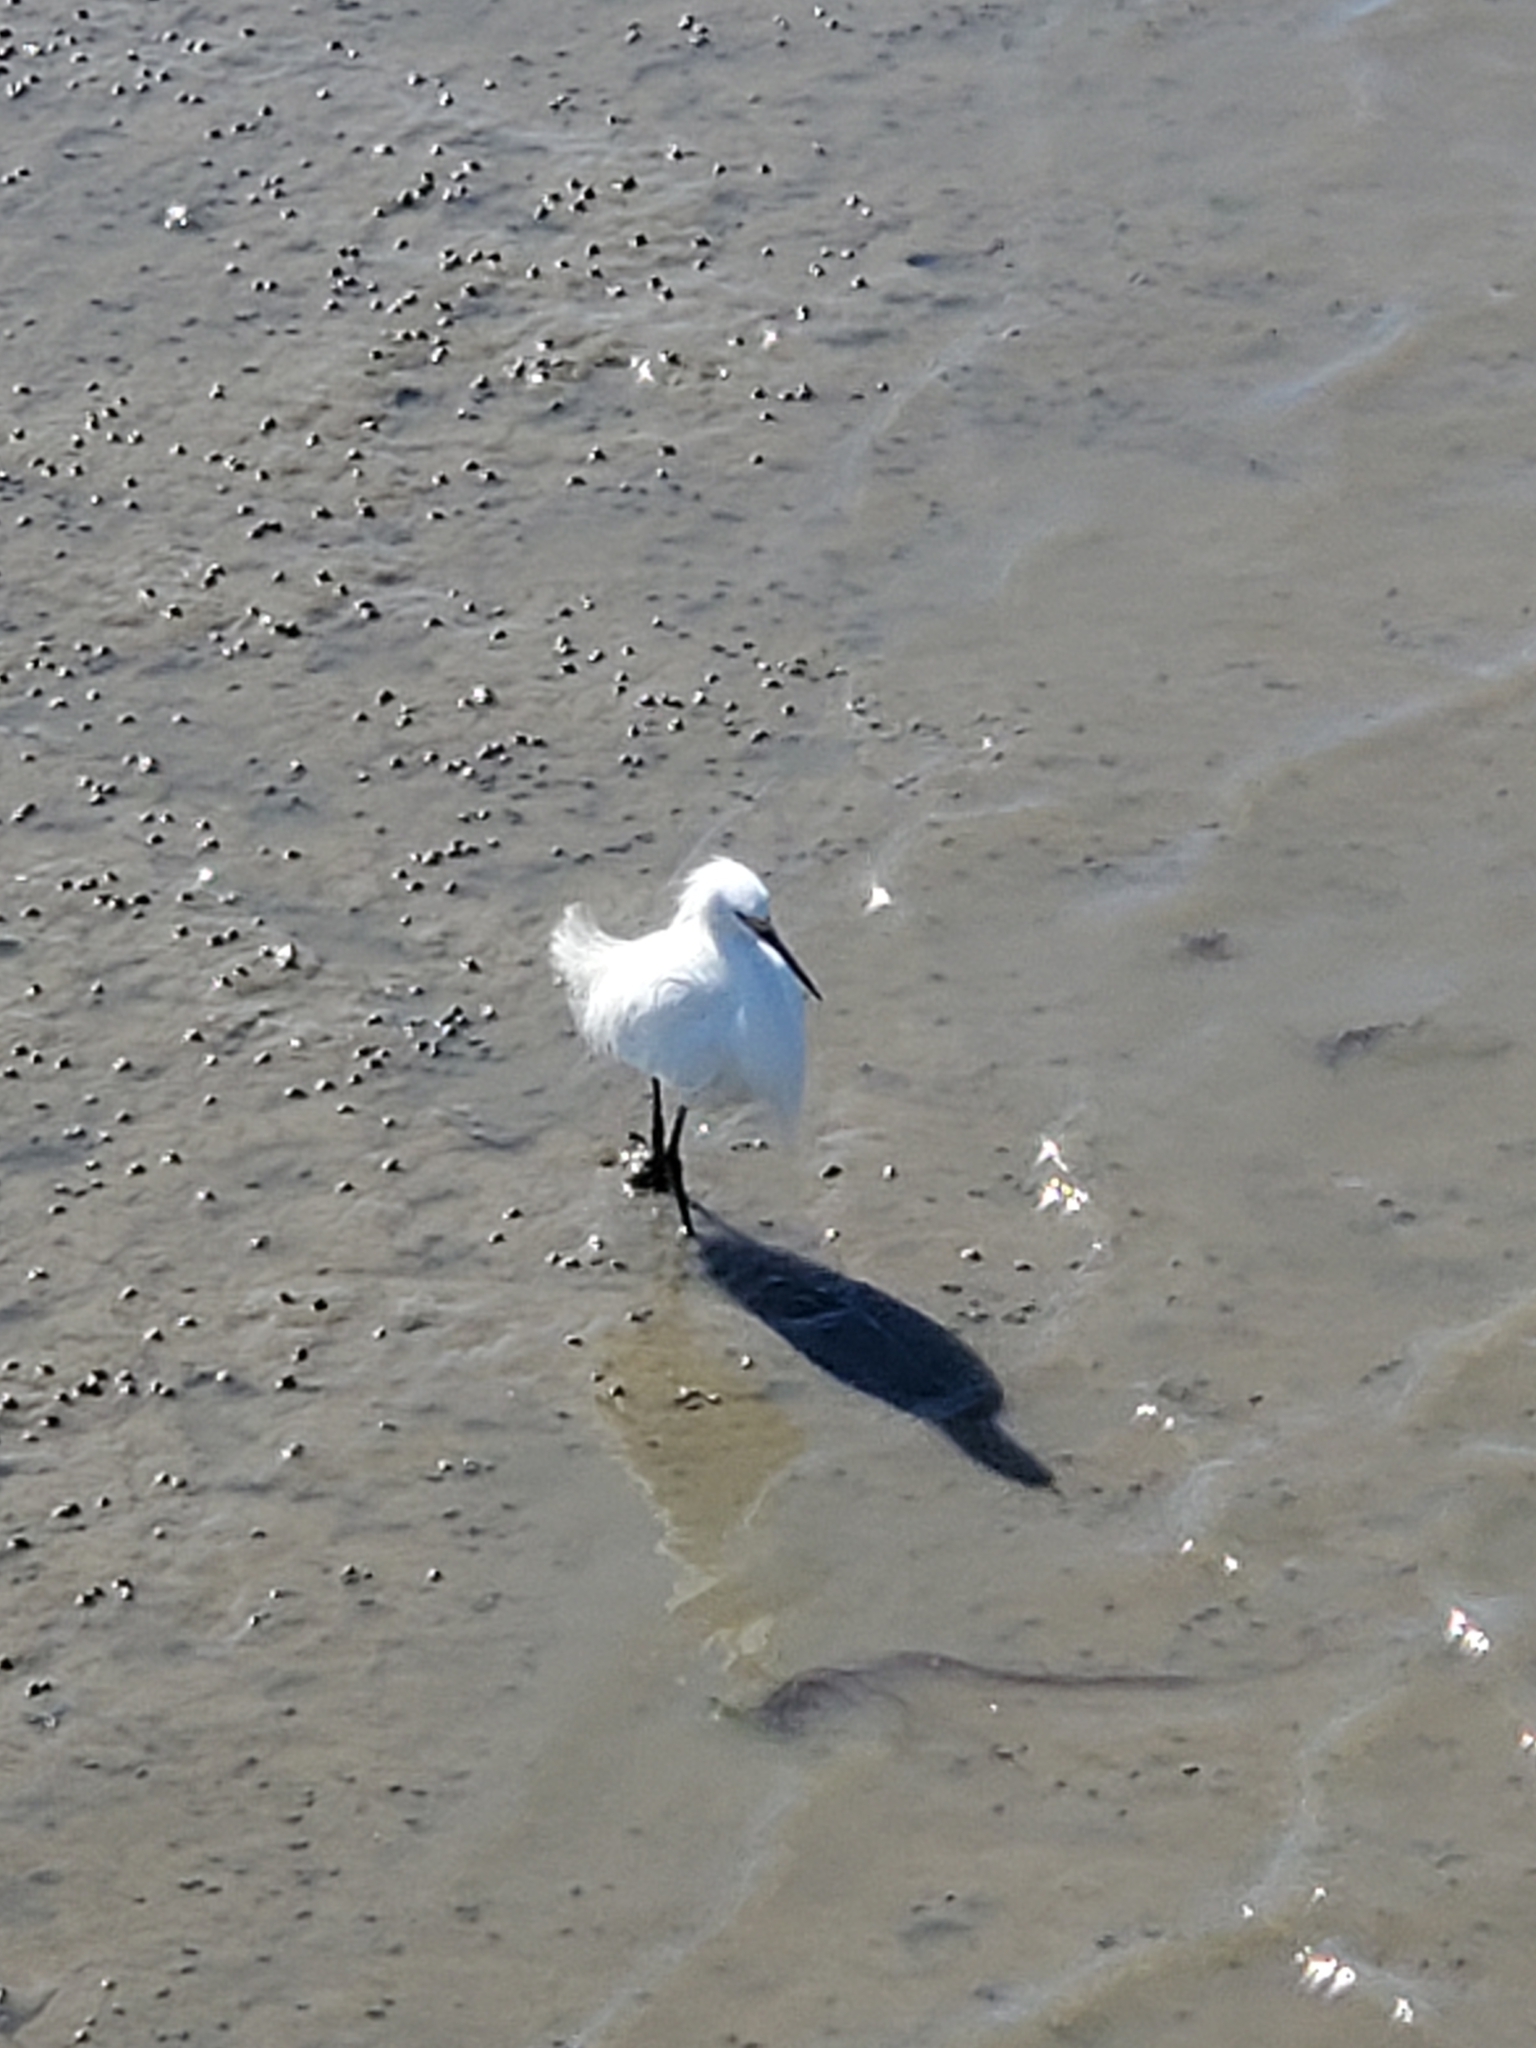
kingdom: Animalia
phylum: Chordata
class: Aves
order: Pelecaniformes
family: Ardeidae
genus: Egretta
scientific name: Egretta thula
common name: Snowy egret
